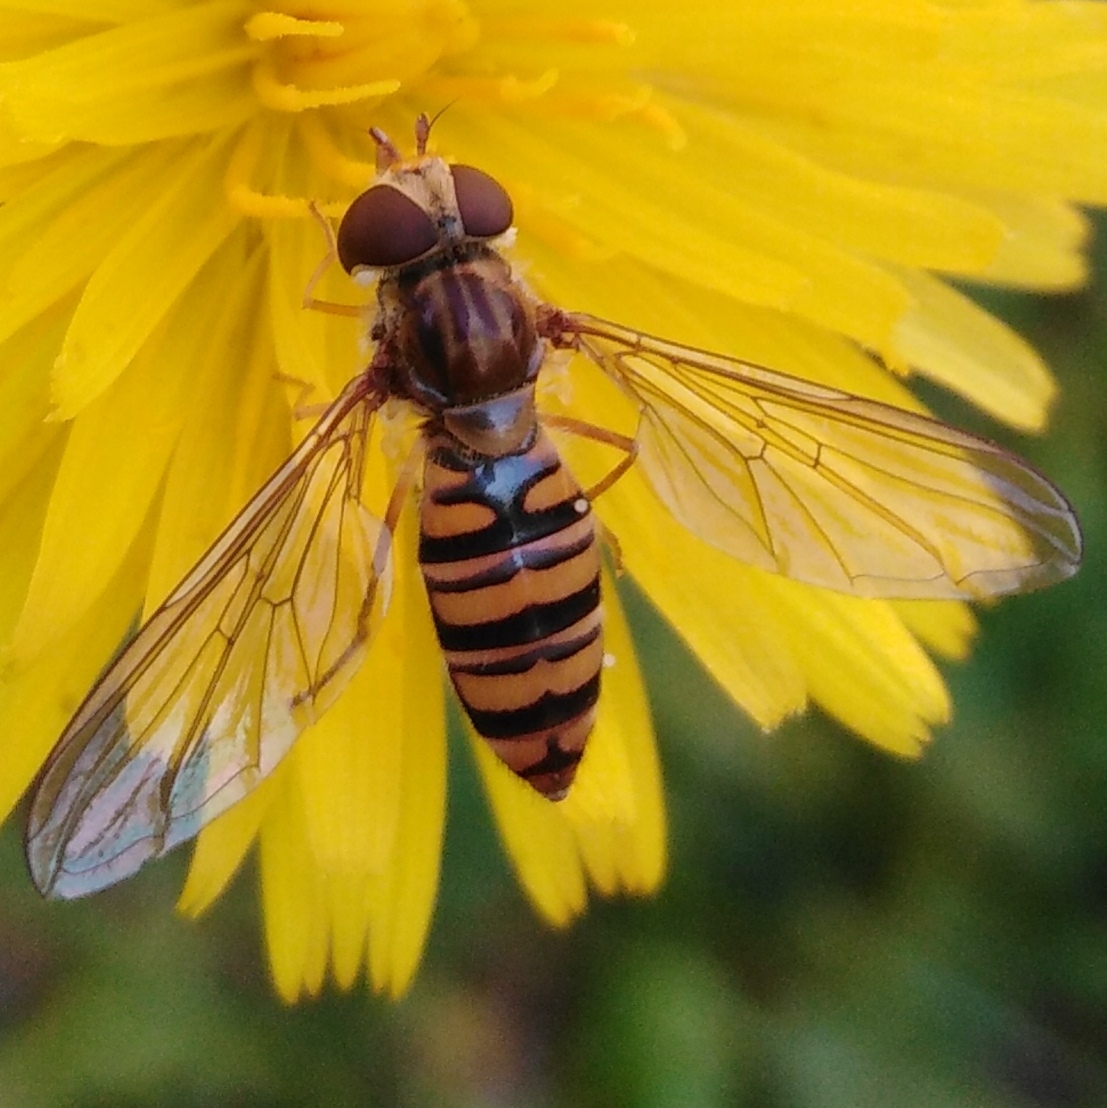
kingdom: Animalia
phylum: Arthropoda
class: Insecta
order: Diptera
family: Syrphidae
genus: Episyrphus
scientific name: Episyrphus balteatus
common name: Marmalade hoverfly
